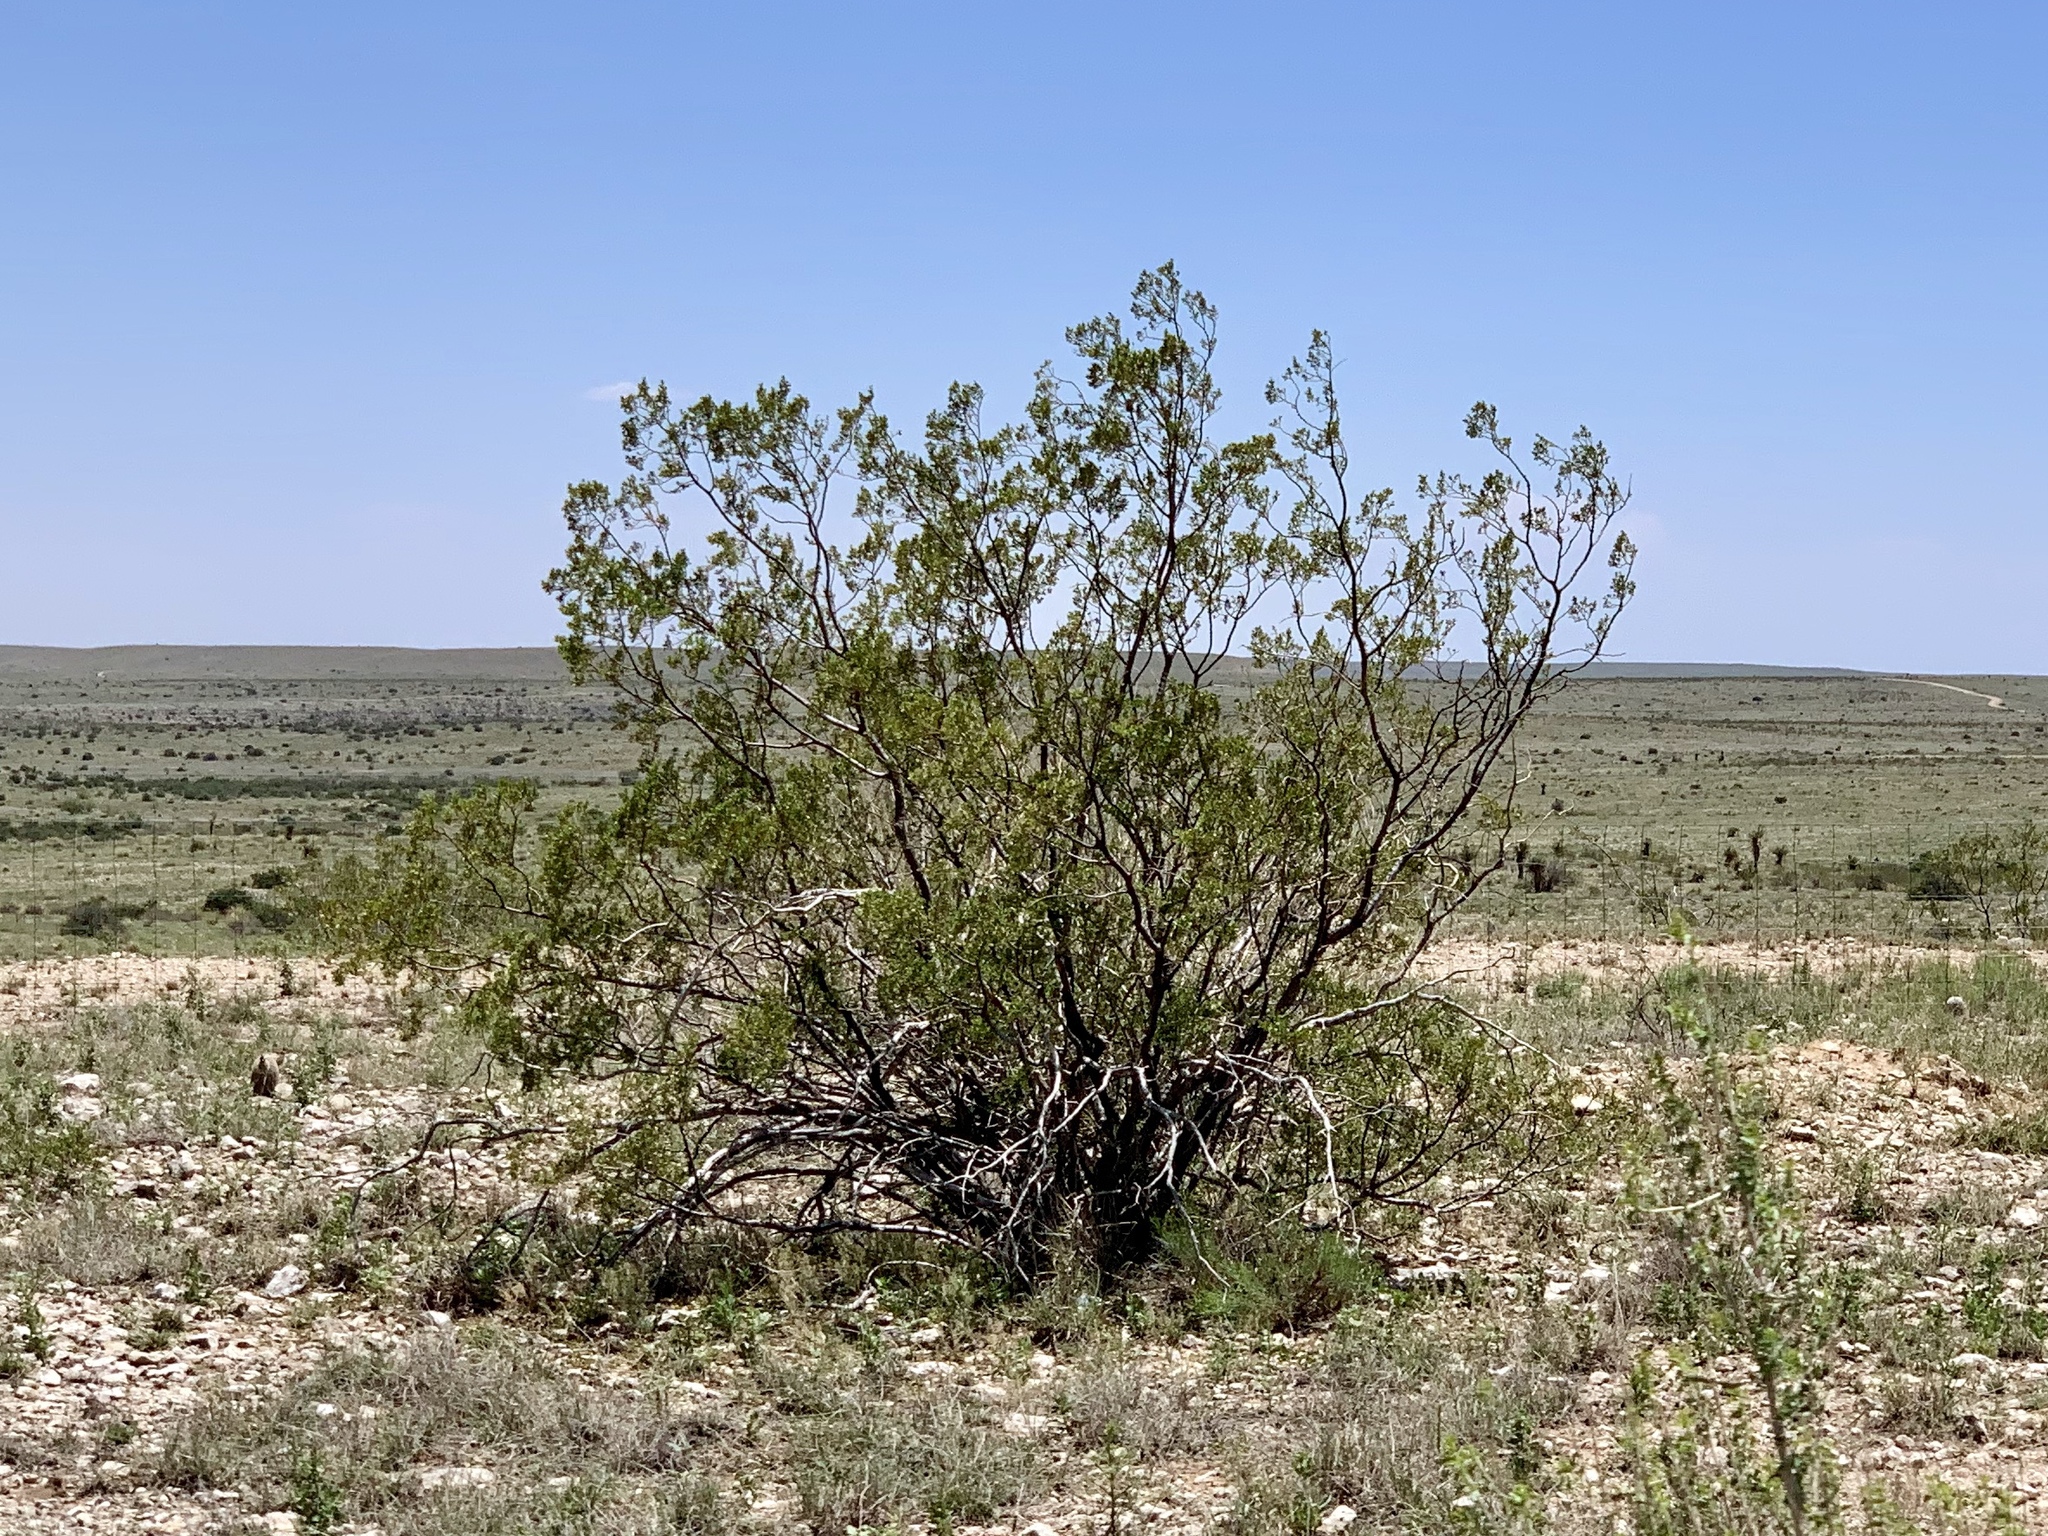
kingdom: Plantae
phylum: Tracheophyta
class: Magnoliopsida
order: Zygophyllales
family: Zygophyllaceae
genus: Larrea
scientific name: Larrea tridentata
